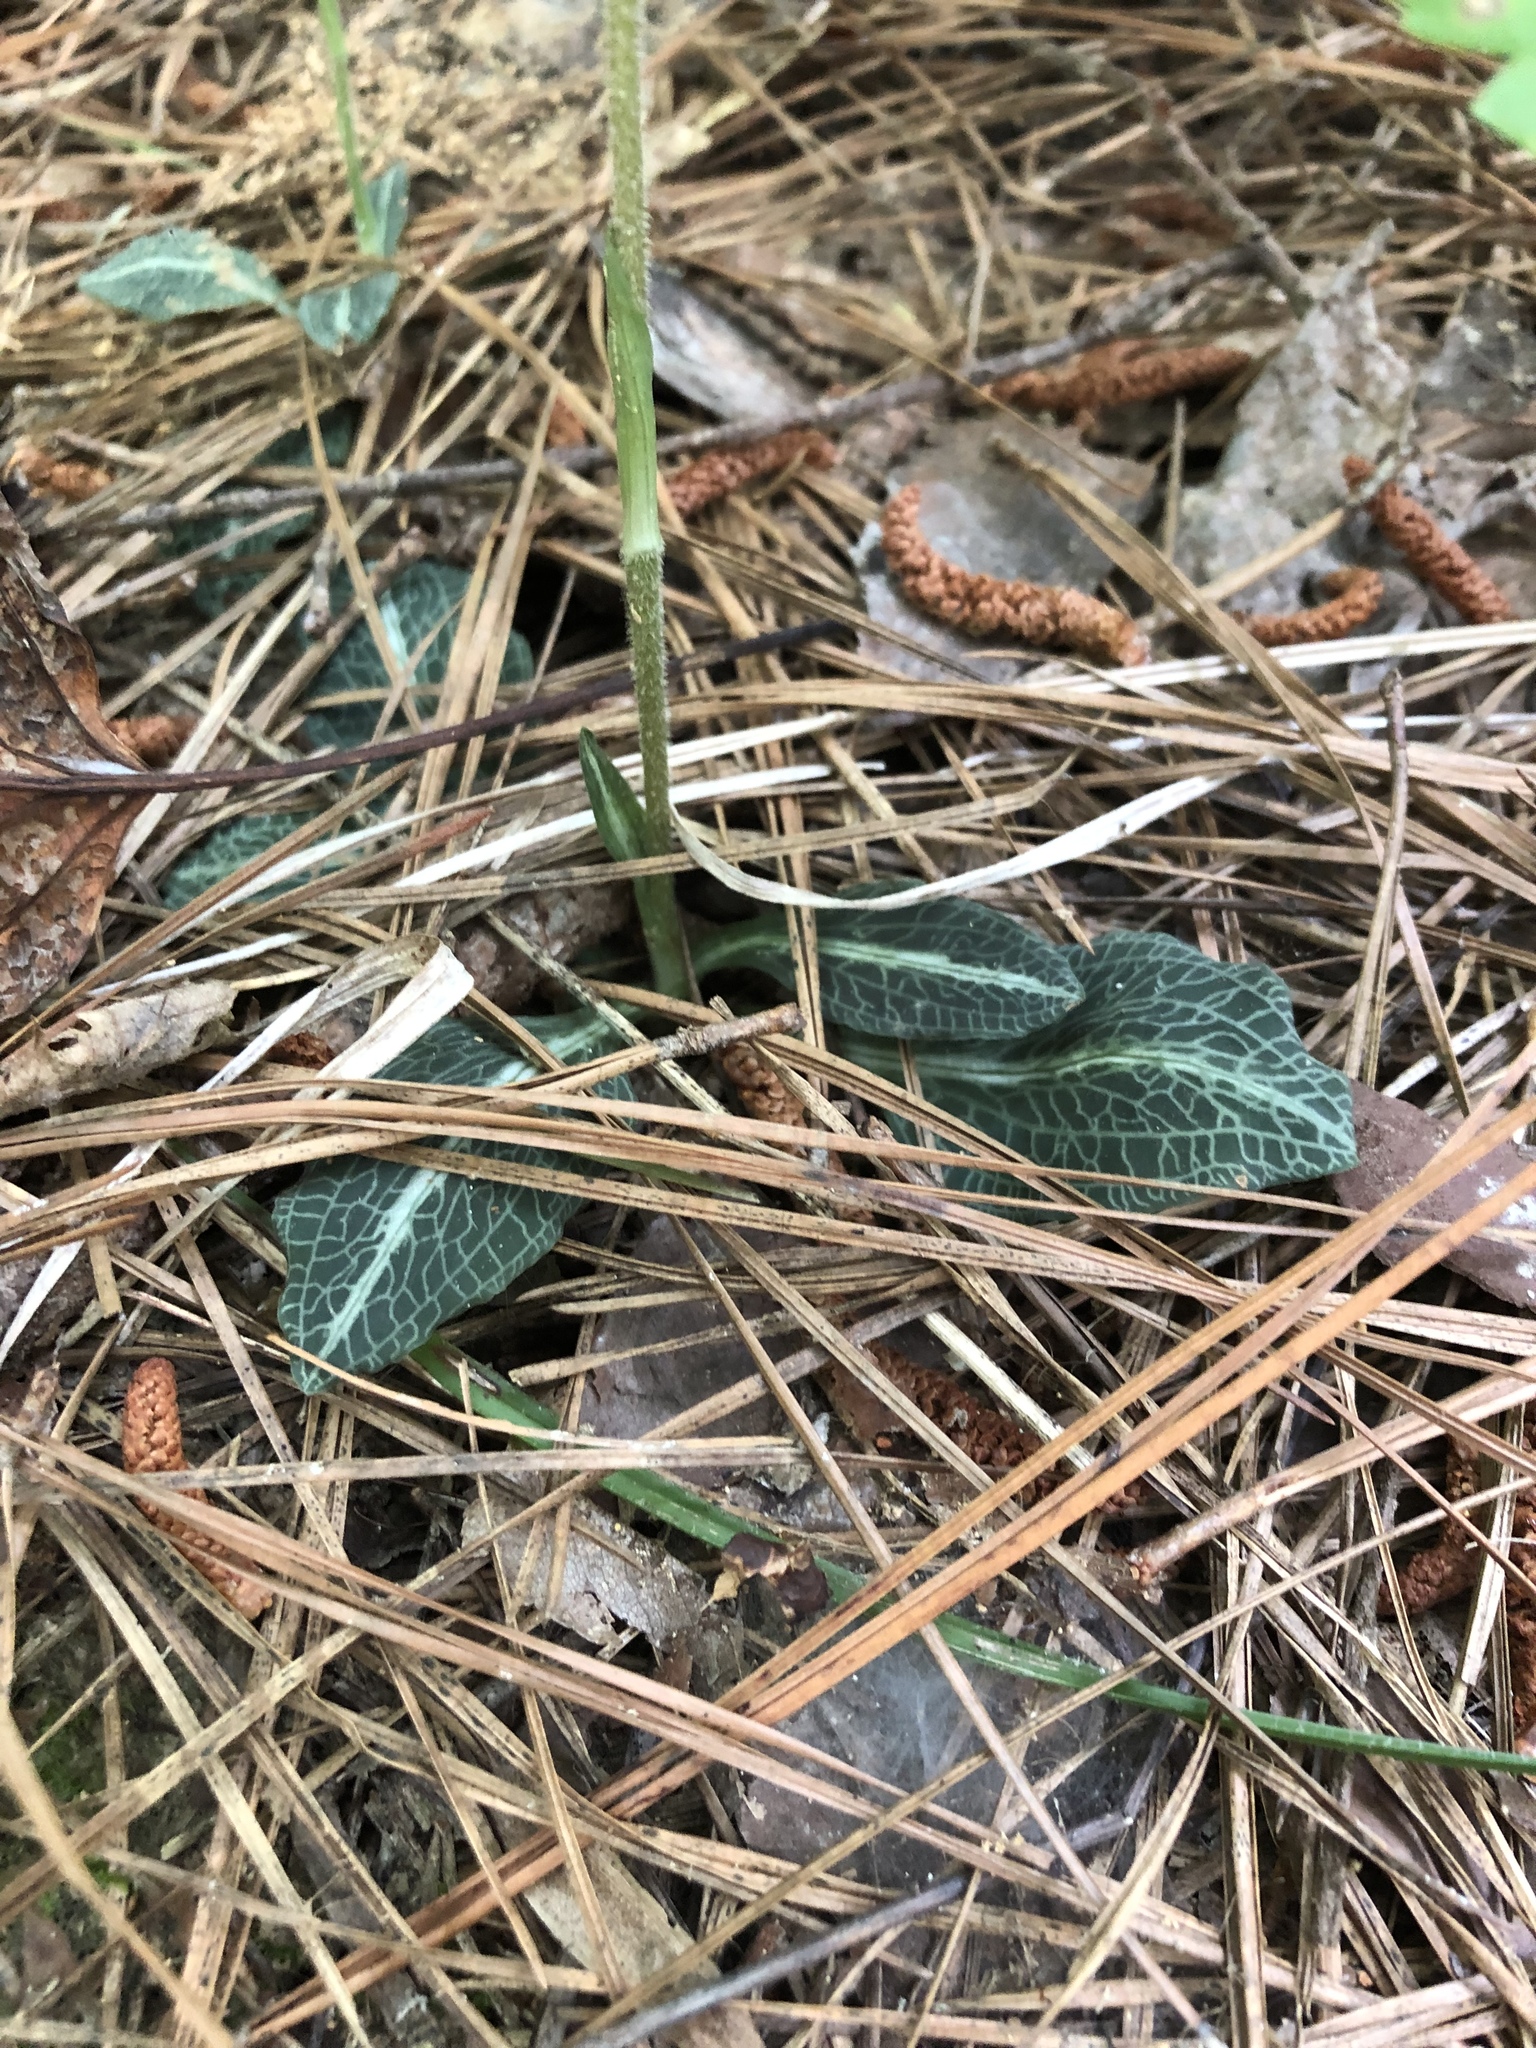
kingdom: Plantae
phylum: Tracheophyta
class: Liliopsida
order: Asparagales
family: Orchidaceae
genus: Goodyera
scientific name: Goodyera pubescens
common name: Downy rattlesnake-plantain
